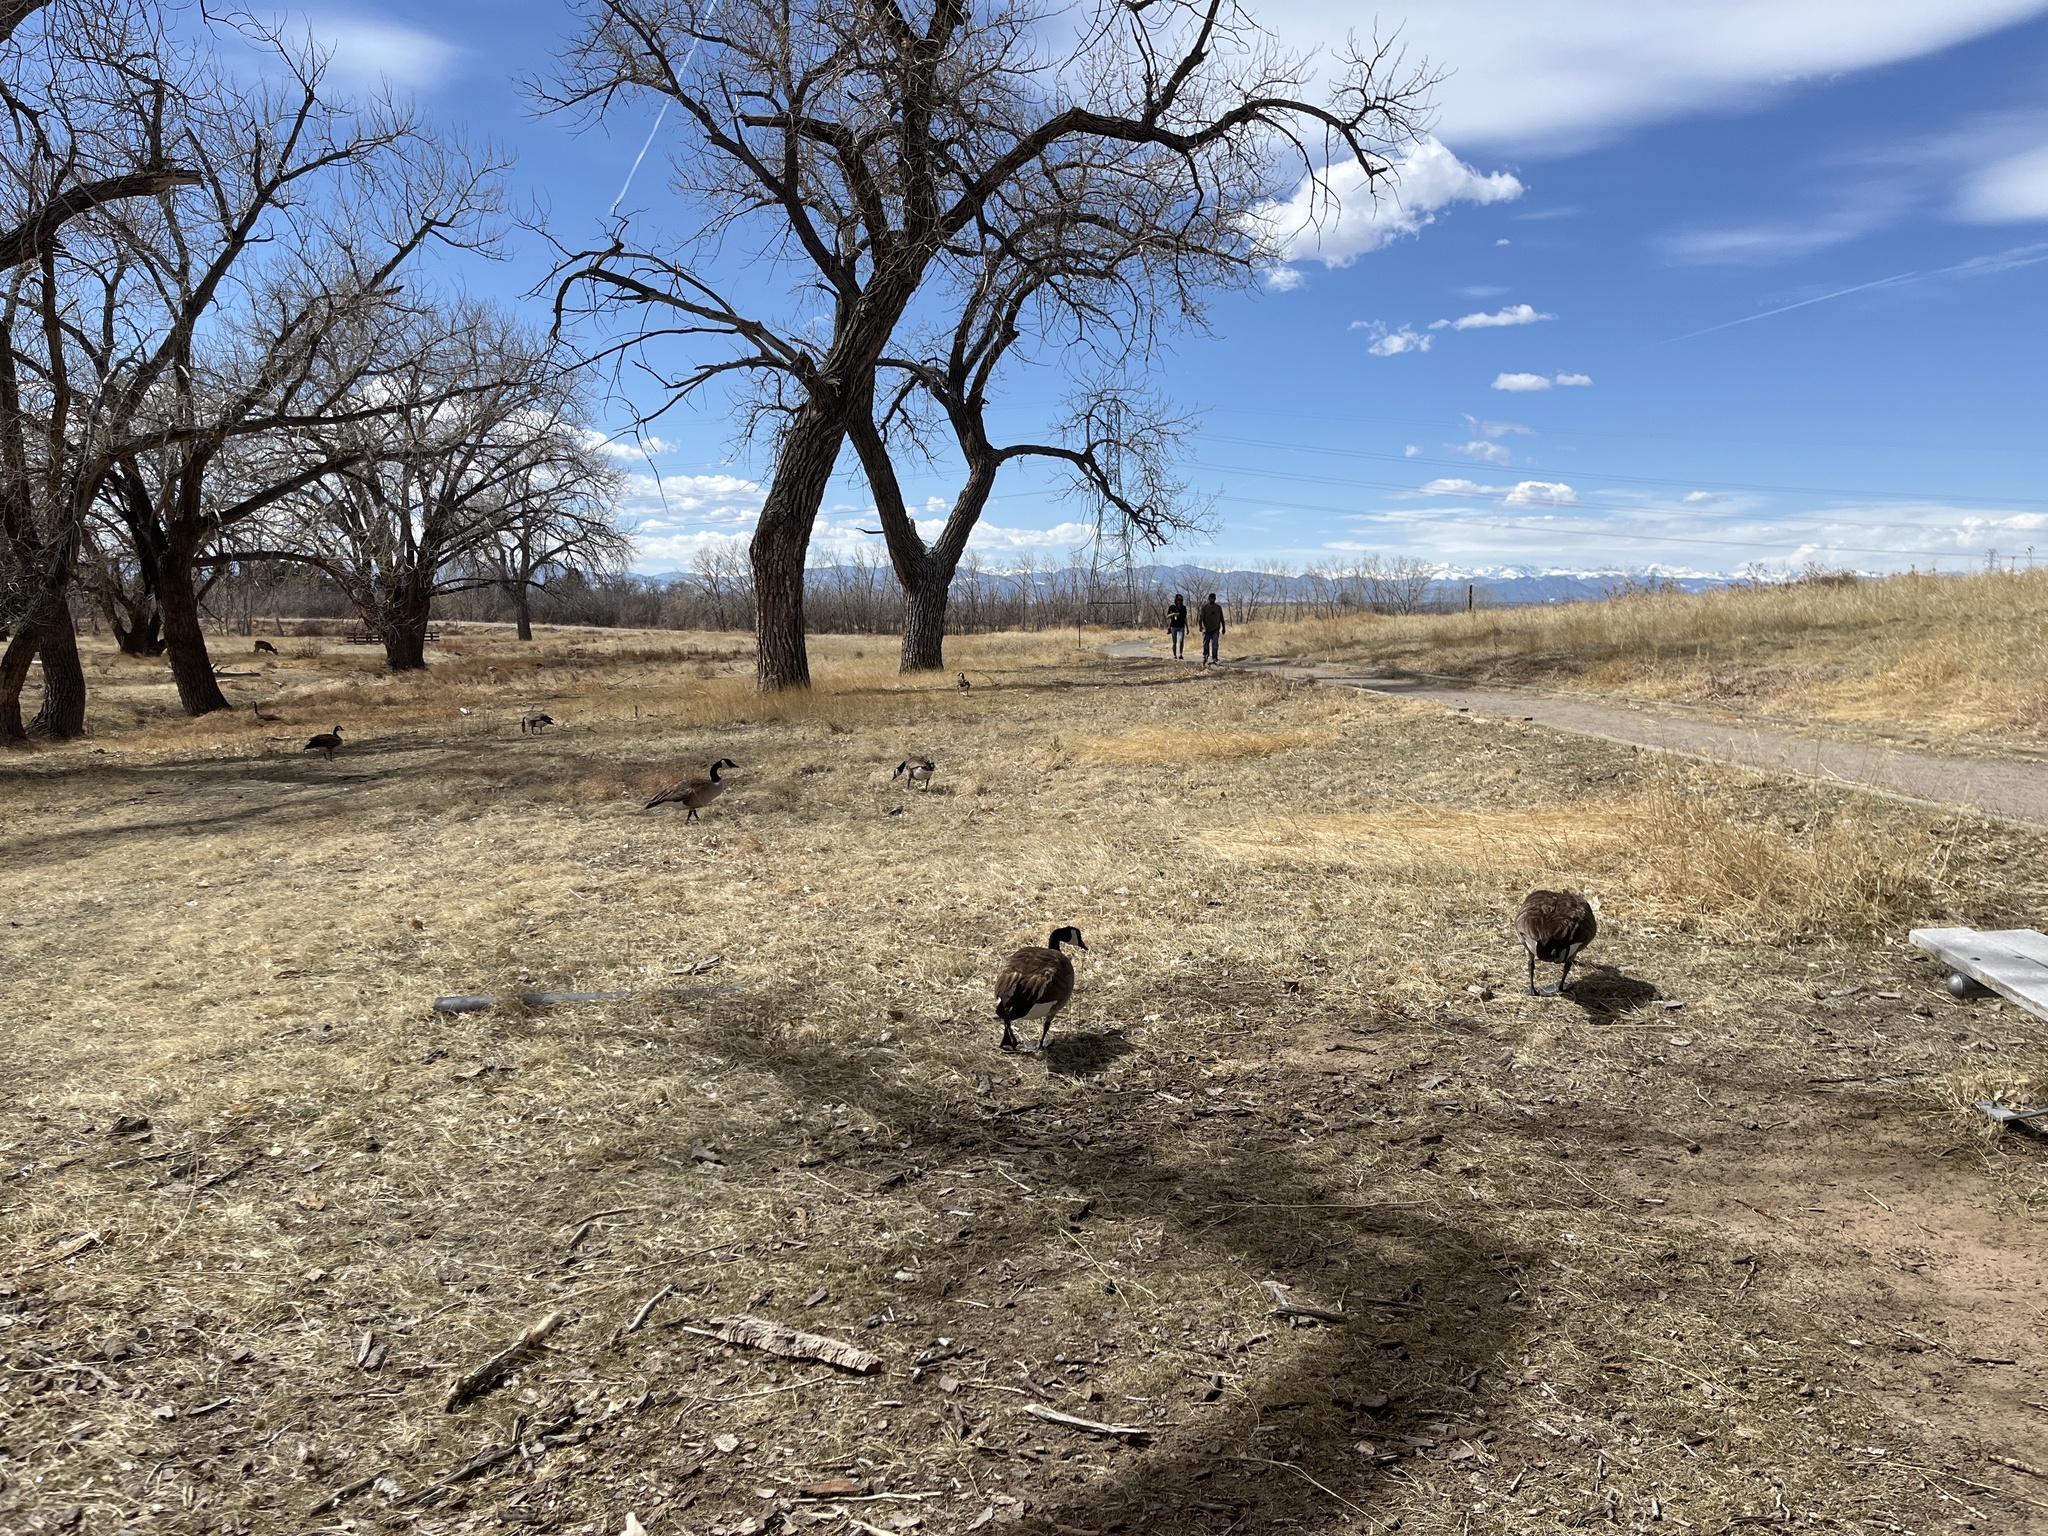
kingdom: Animalia
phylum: Chordata
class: Aves
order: Anseriformes
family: Anatidae
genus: Branta
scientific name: Branta canadensis
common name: Canada goose
